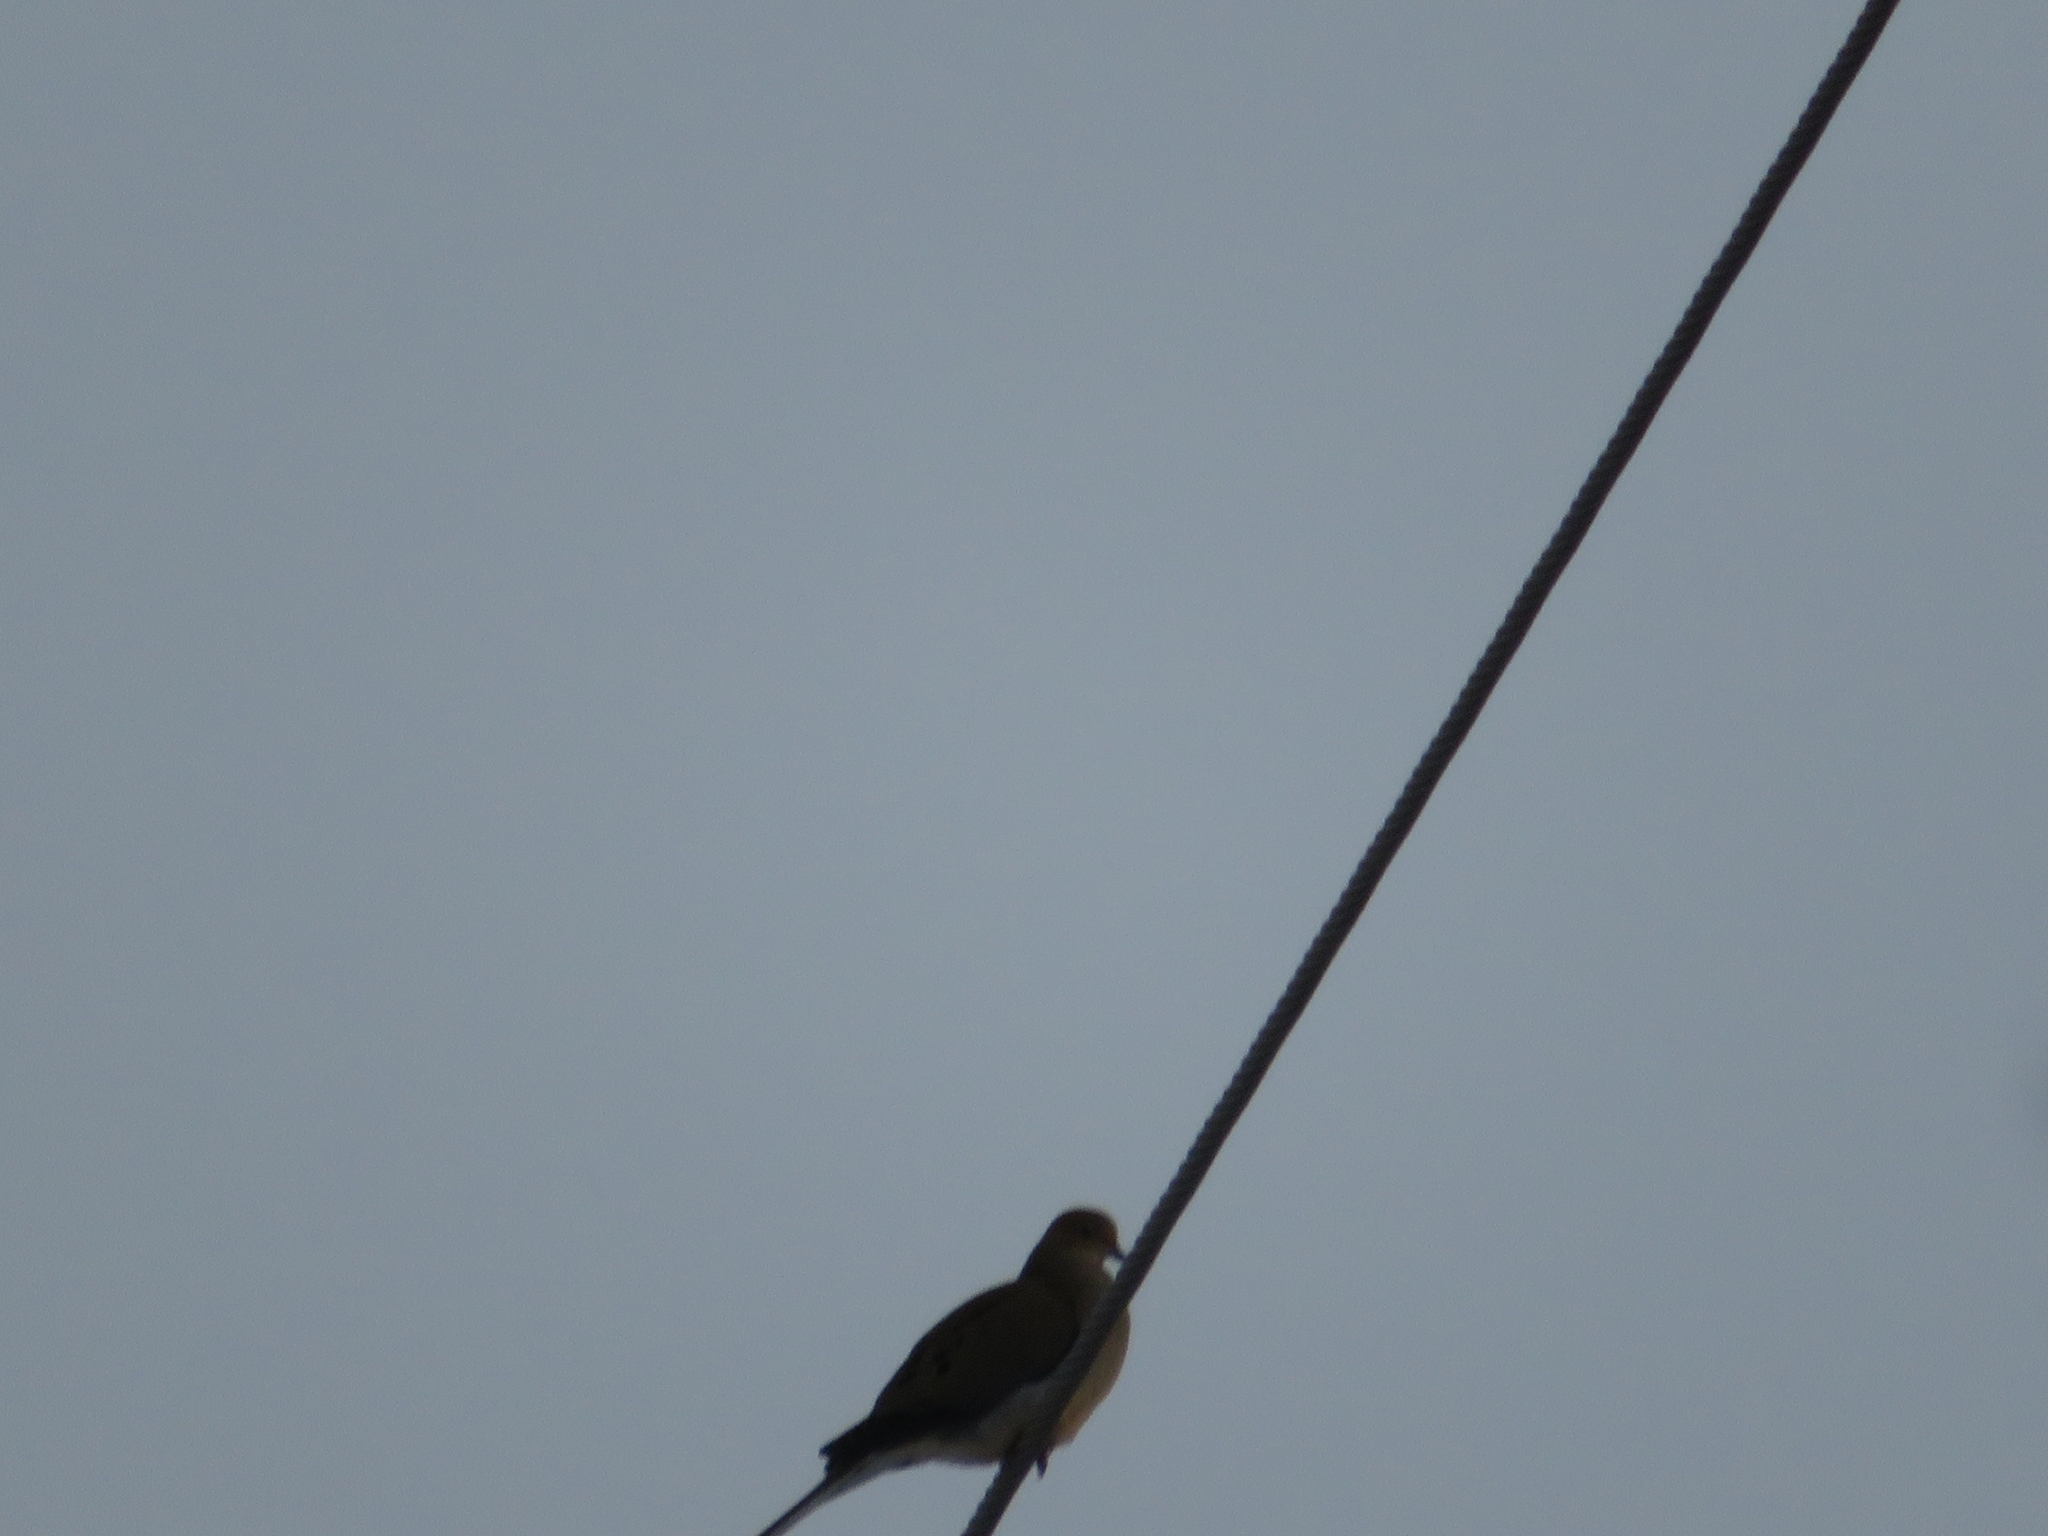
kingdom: Animalia
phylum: Chordata
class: Aves
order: Columbiformes
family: Columbidae
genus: Zenaida
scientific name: Zenaida macroura
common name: Mourning dove
